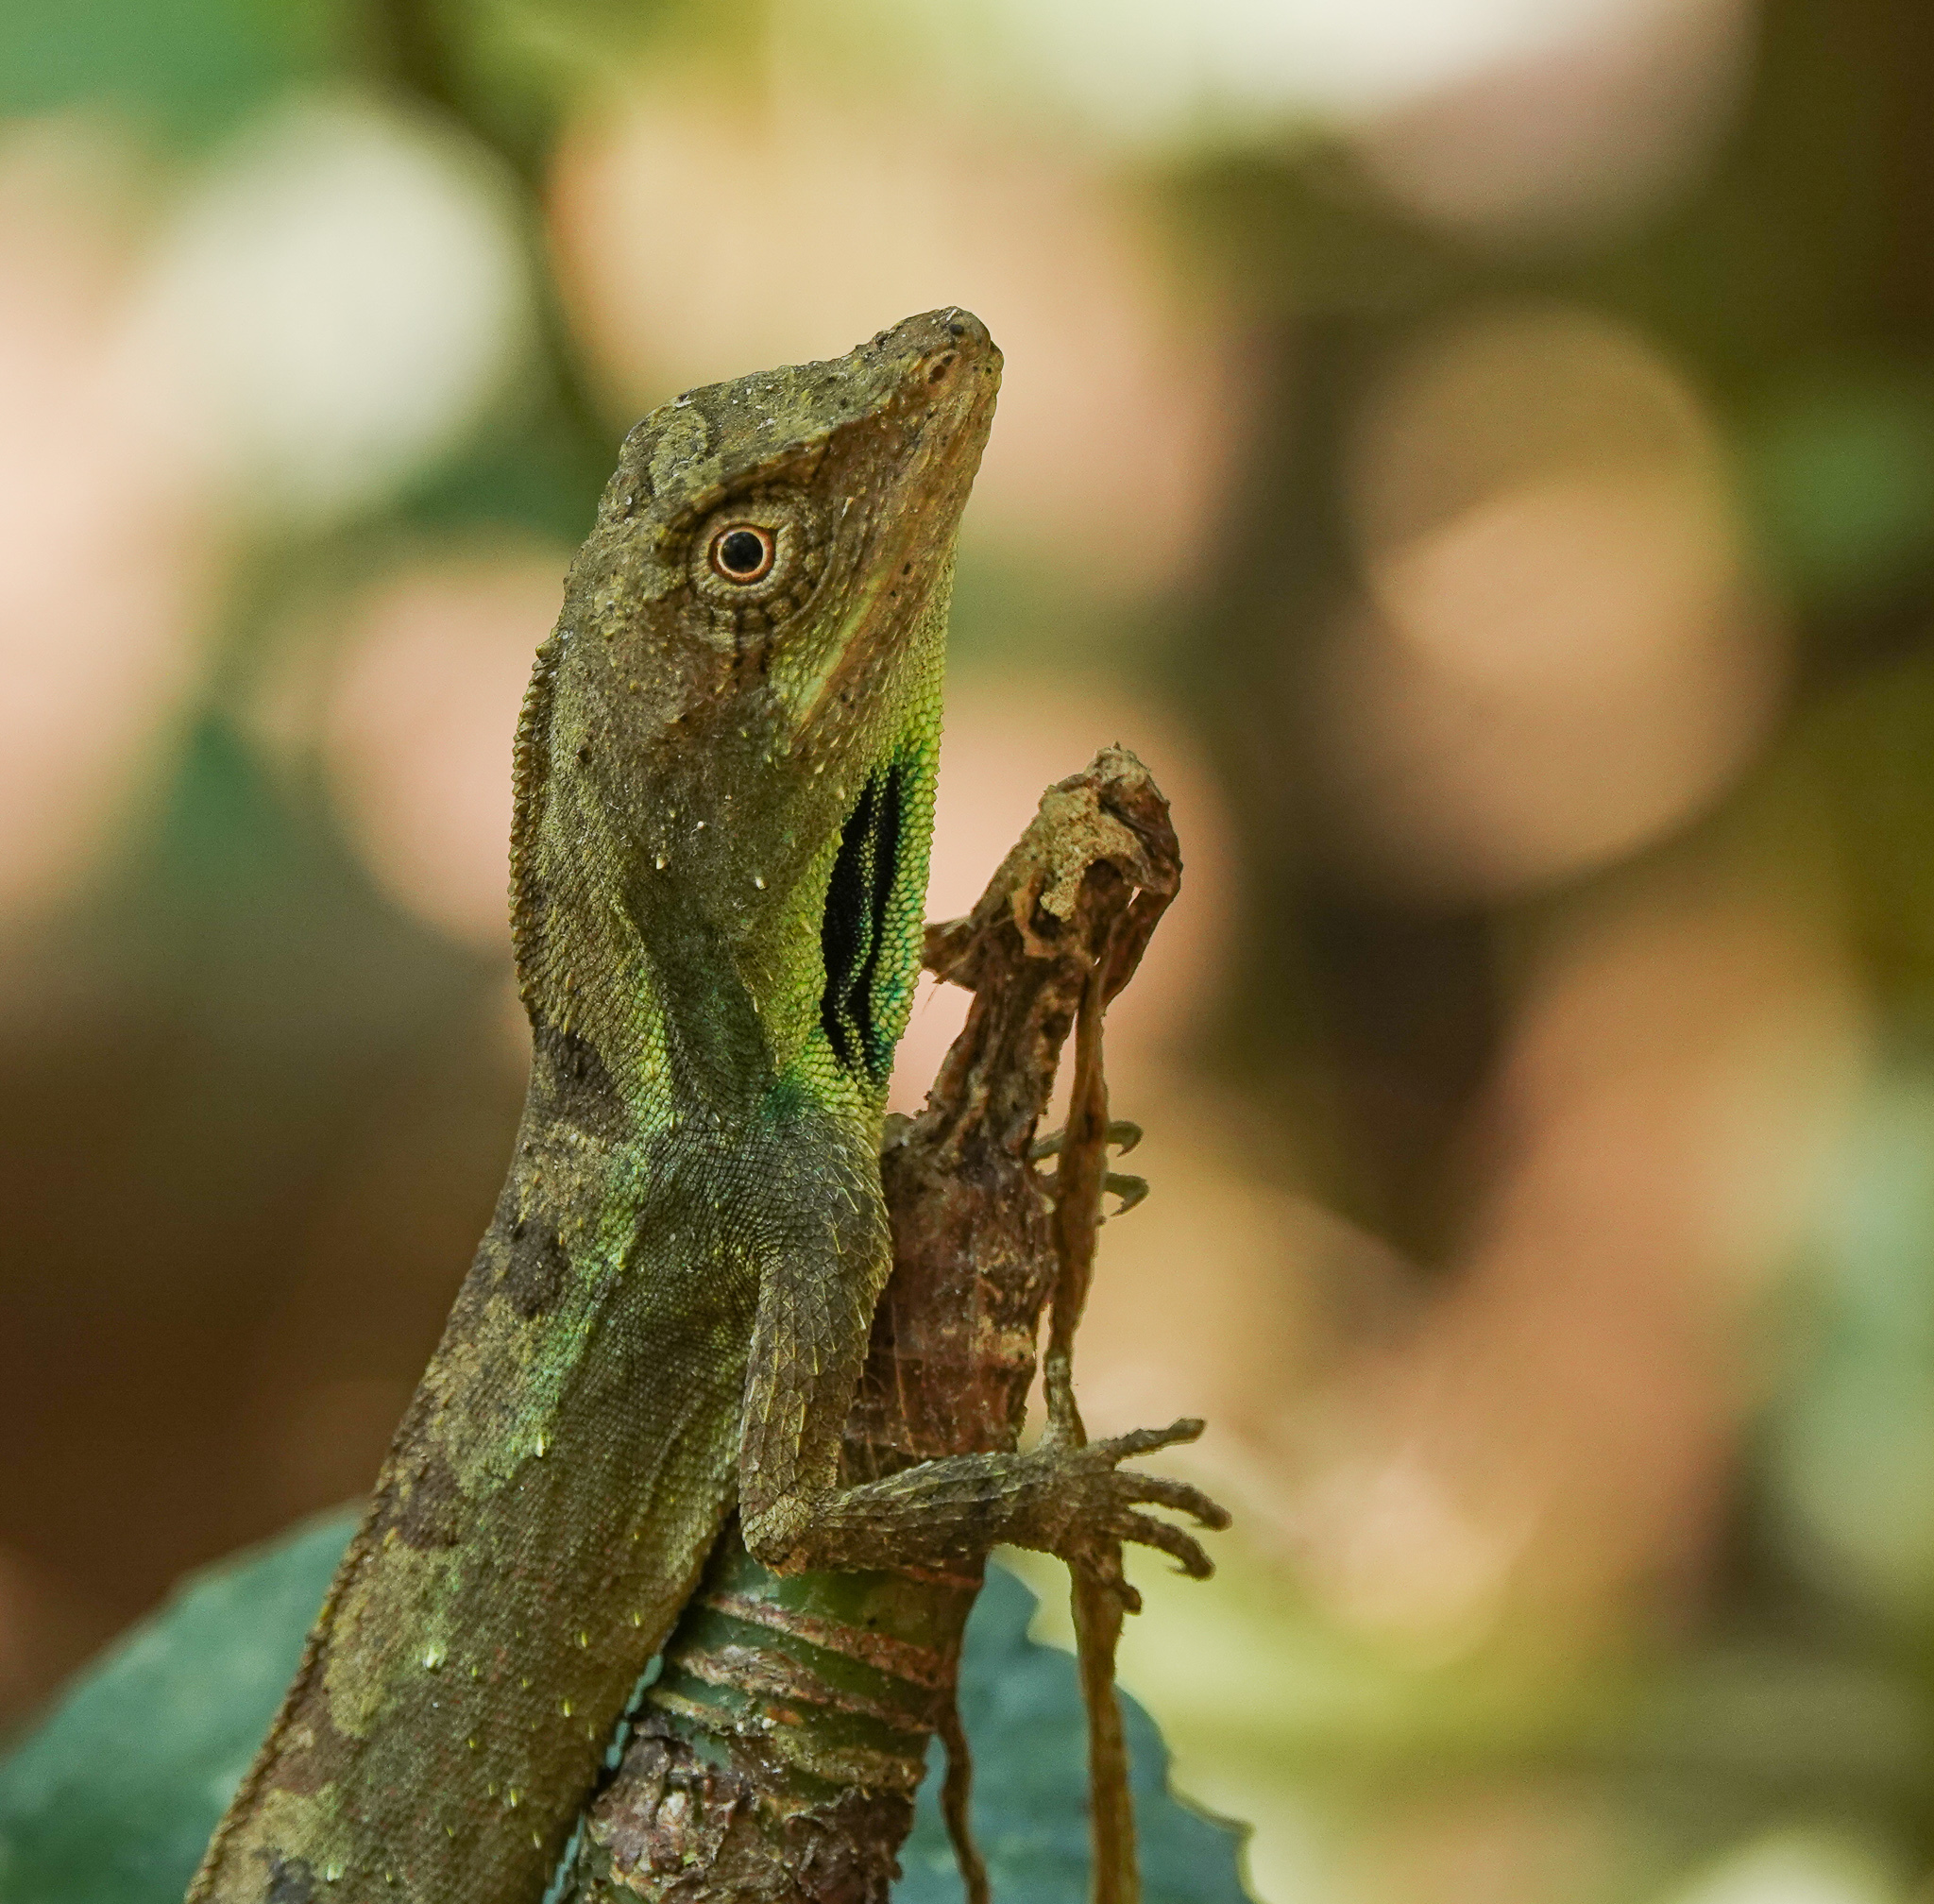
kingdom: Animalia
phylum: Chordata
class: Squamata
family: Agamidae
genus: Ptyctolaemus
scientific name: Ptyctolaemus gularis
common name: Green fan-throated lizard
